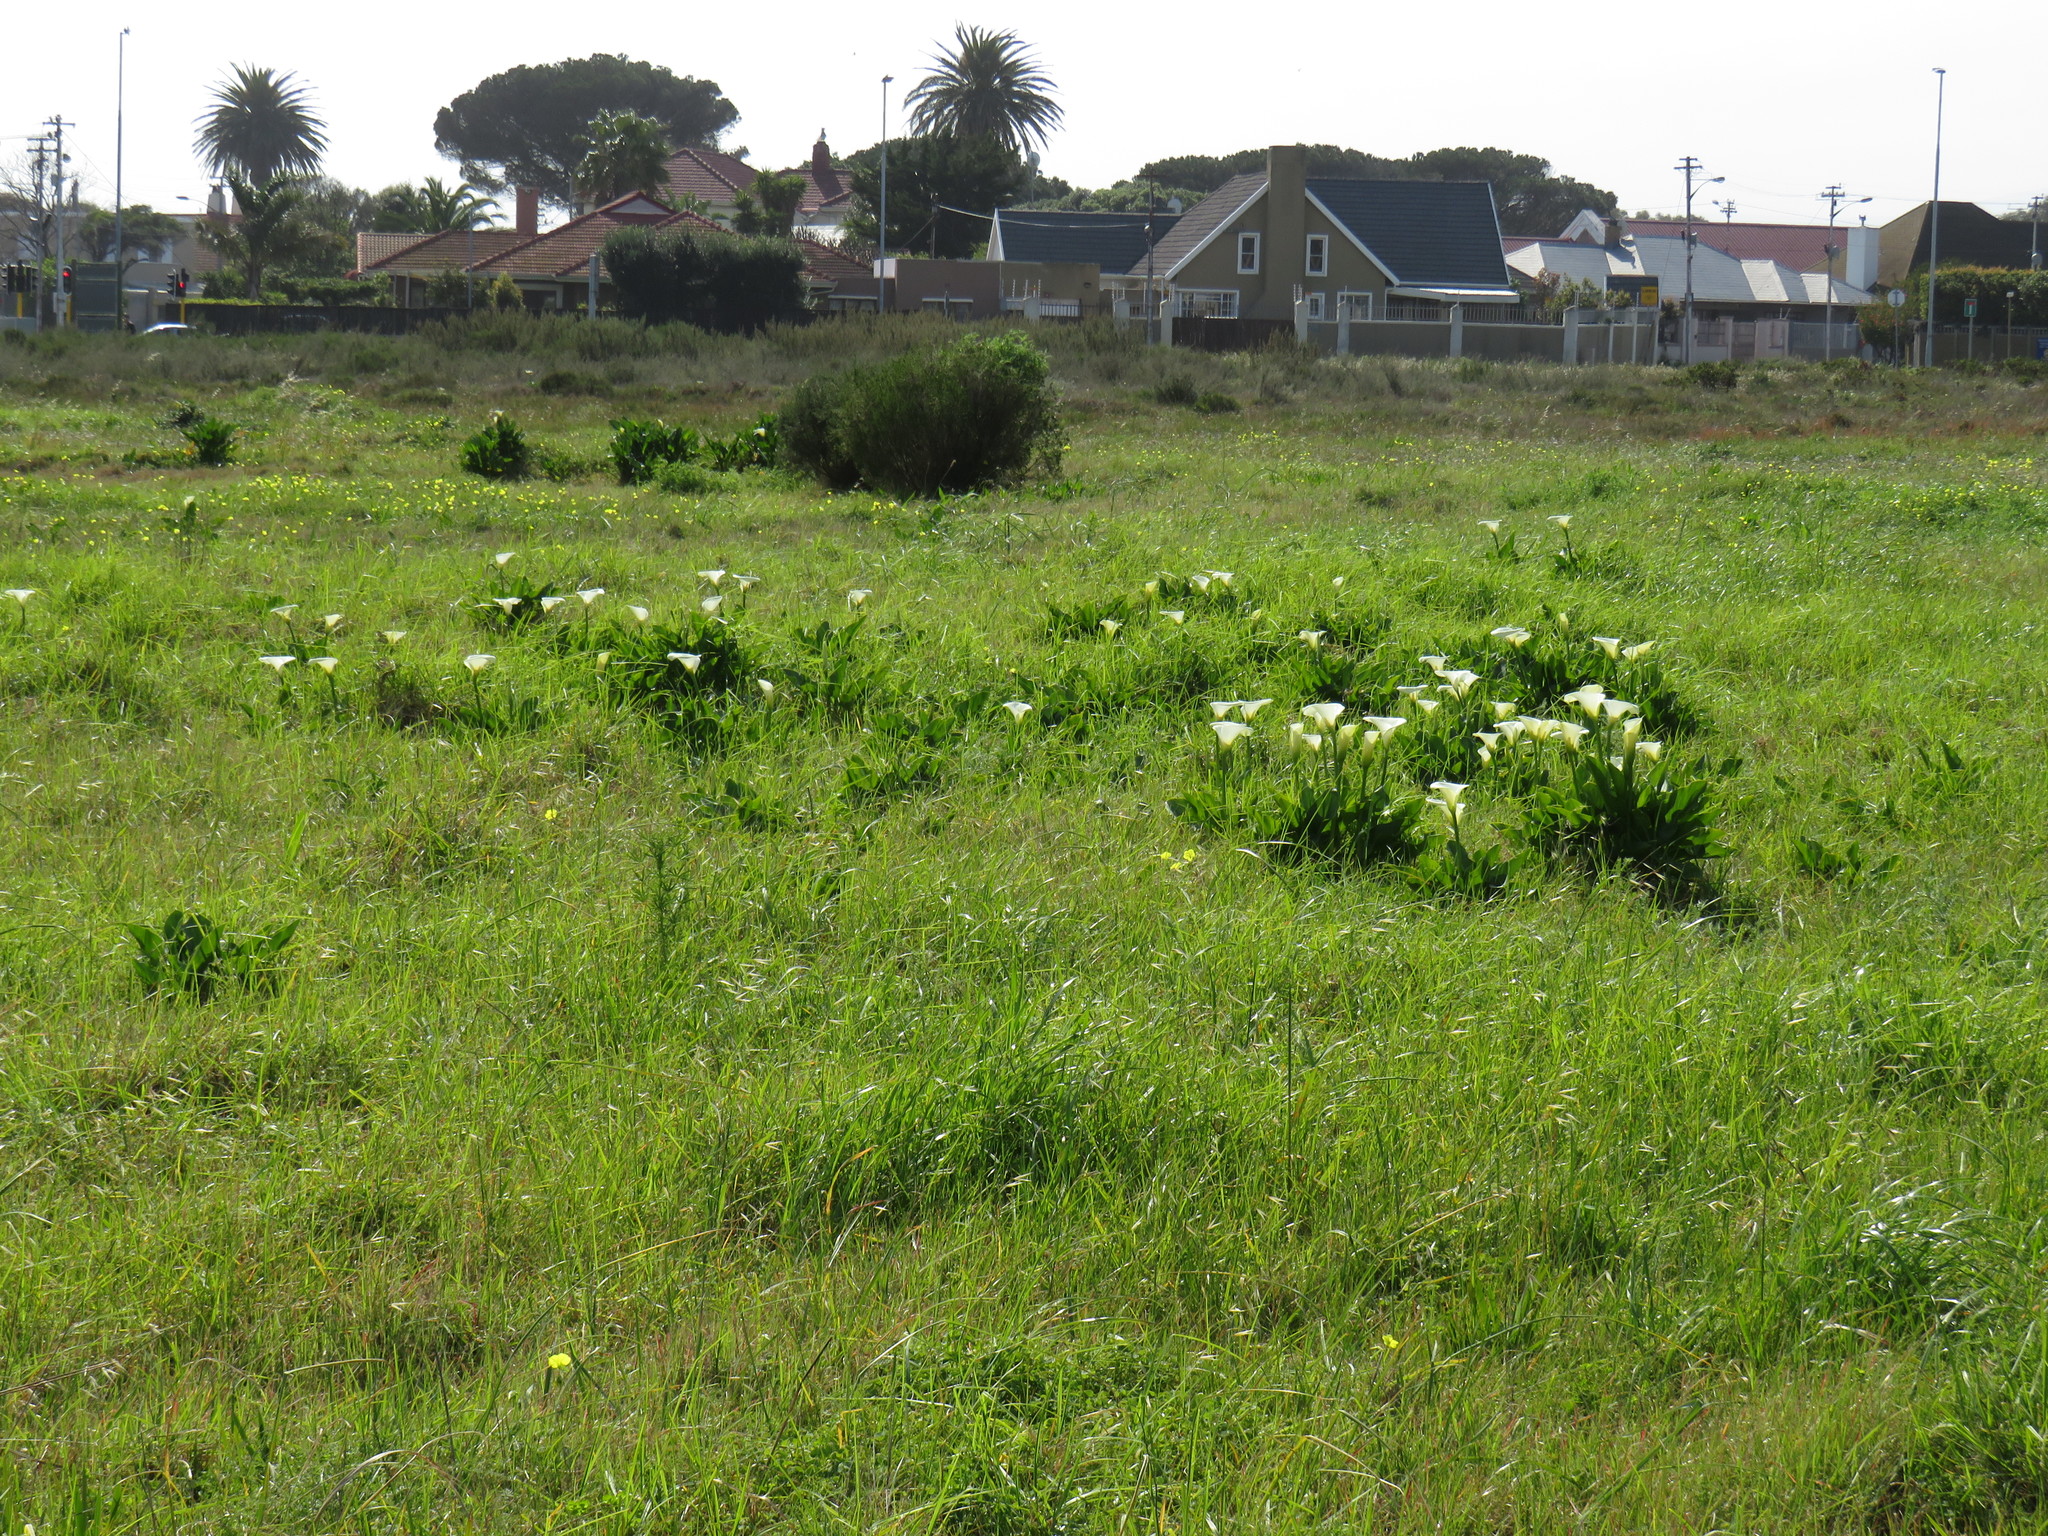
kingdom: Plantae
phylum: Tracheophyta
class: Liliopsida
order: Alismatales
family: Araceae
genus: Zantedeschia
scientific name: Zantedeschia aethiopica
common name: Altar-lily
